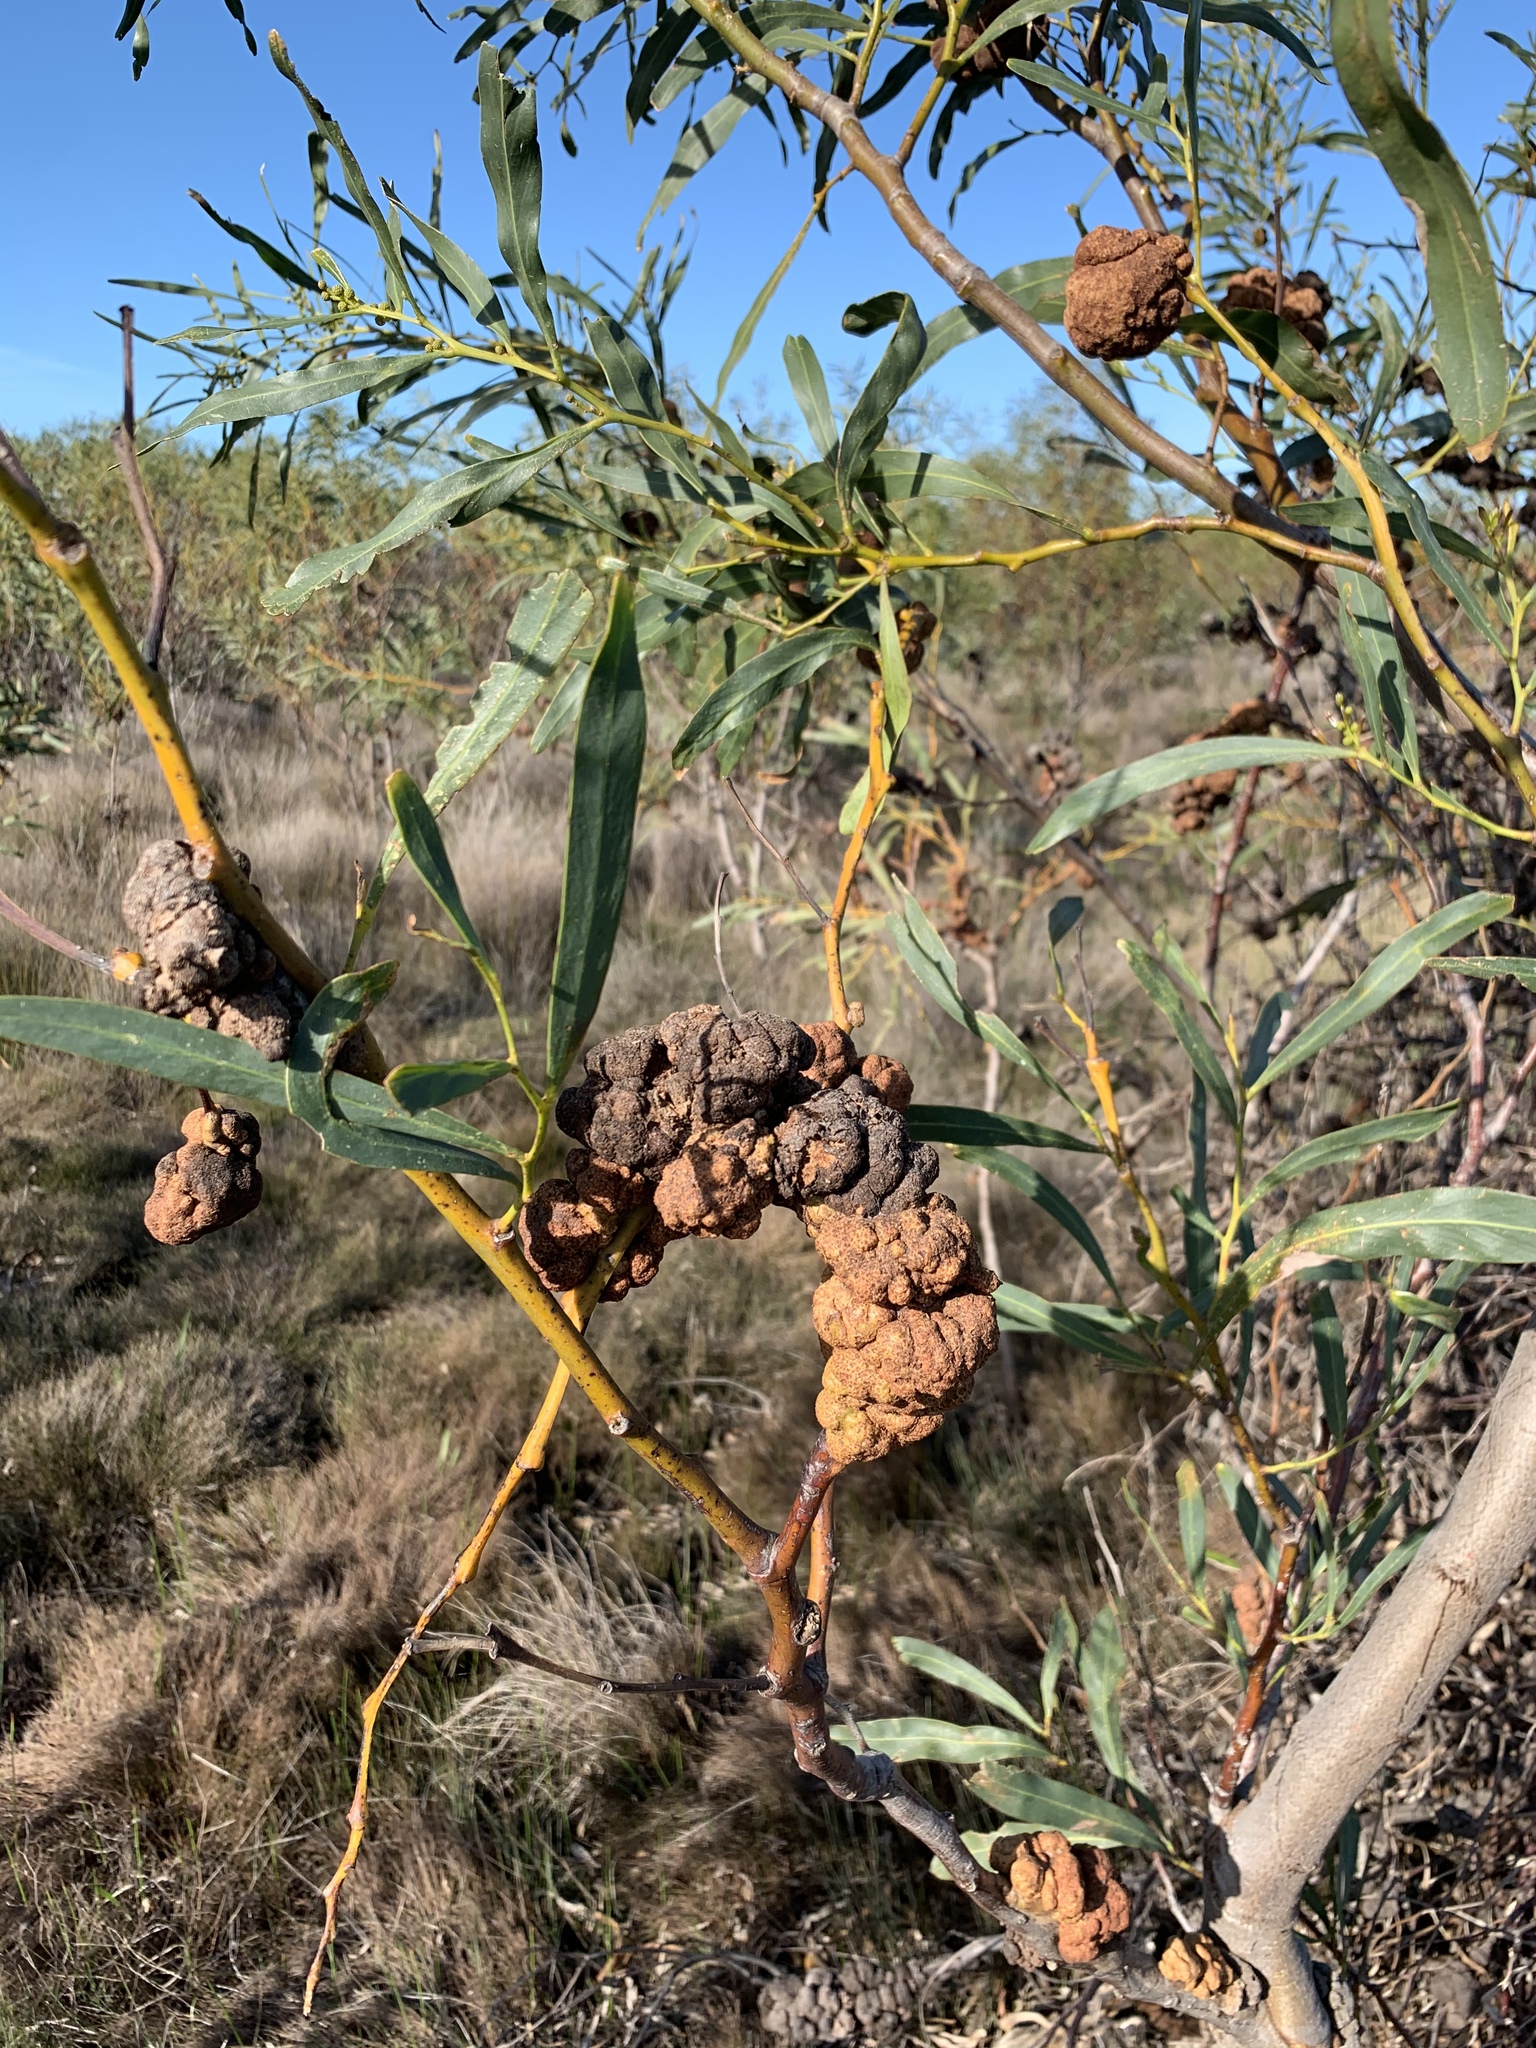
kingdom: Fungi
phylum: Basidiomycota
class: Pucciniomycetes
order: Pucciniales
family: Uromycladiaceae
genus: Uromycladium
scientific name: Uromycladium morrisii
